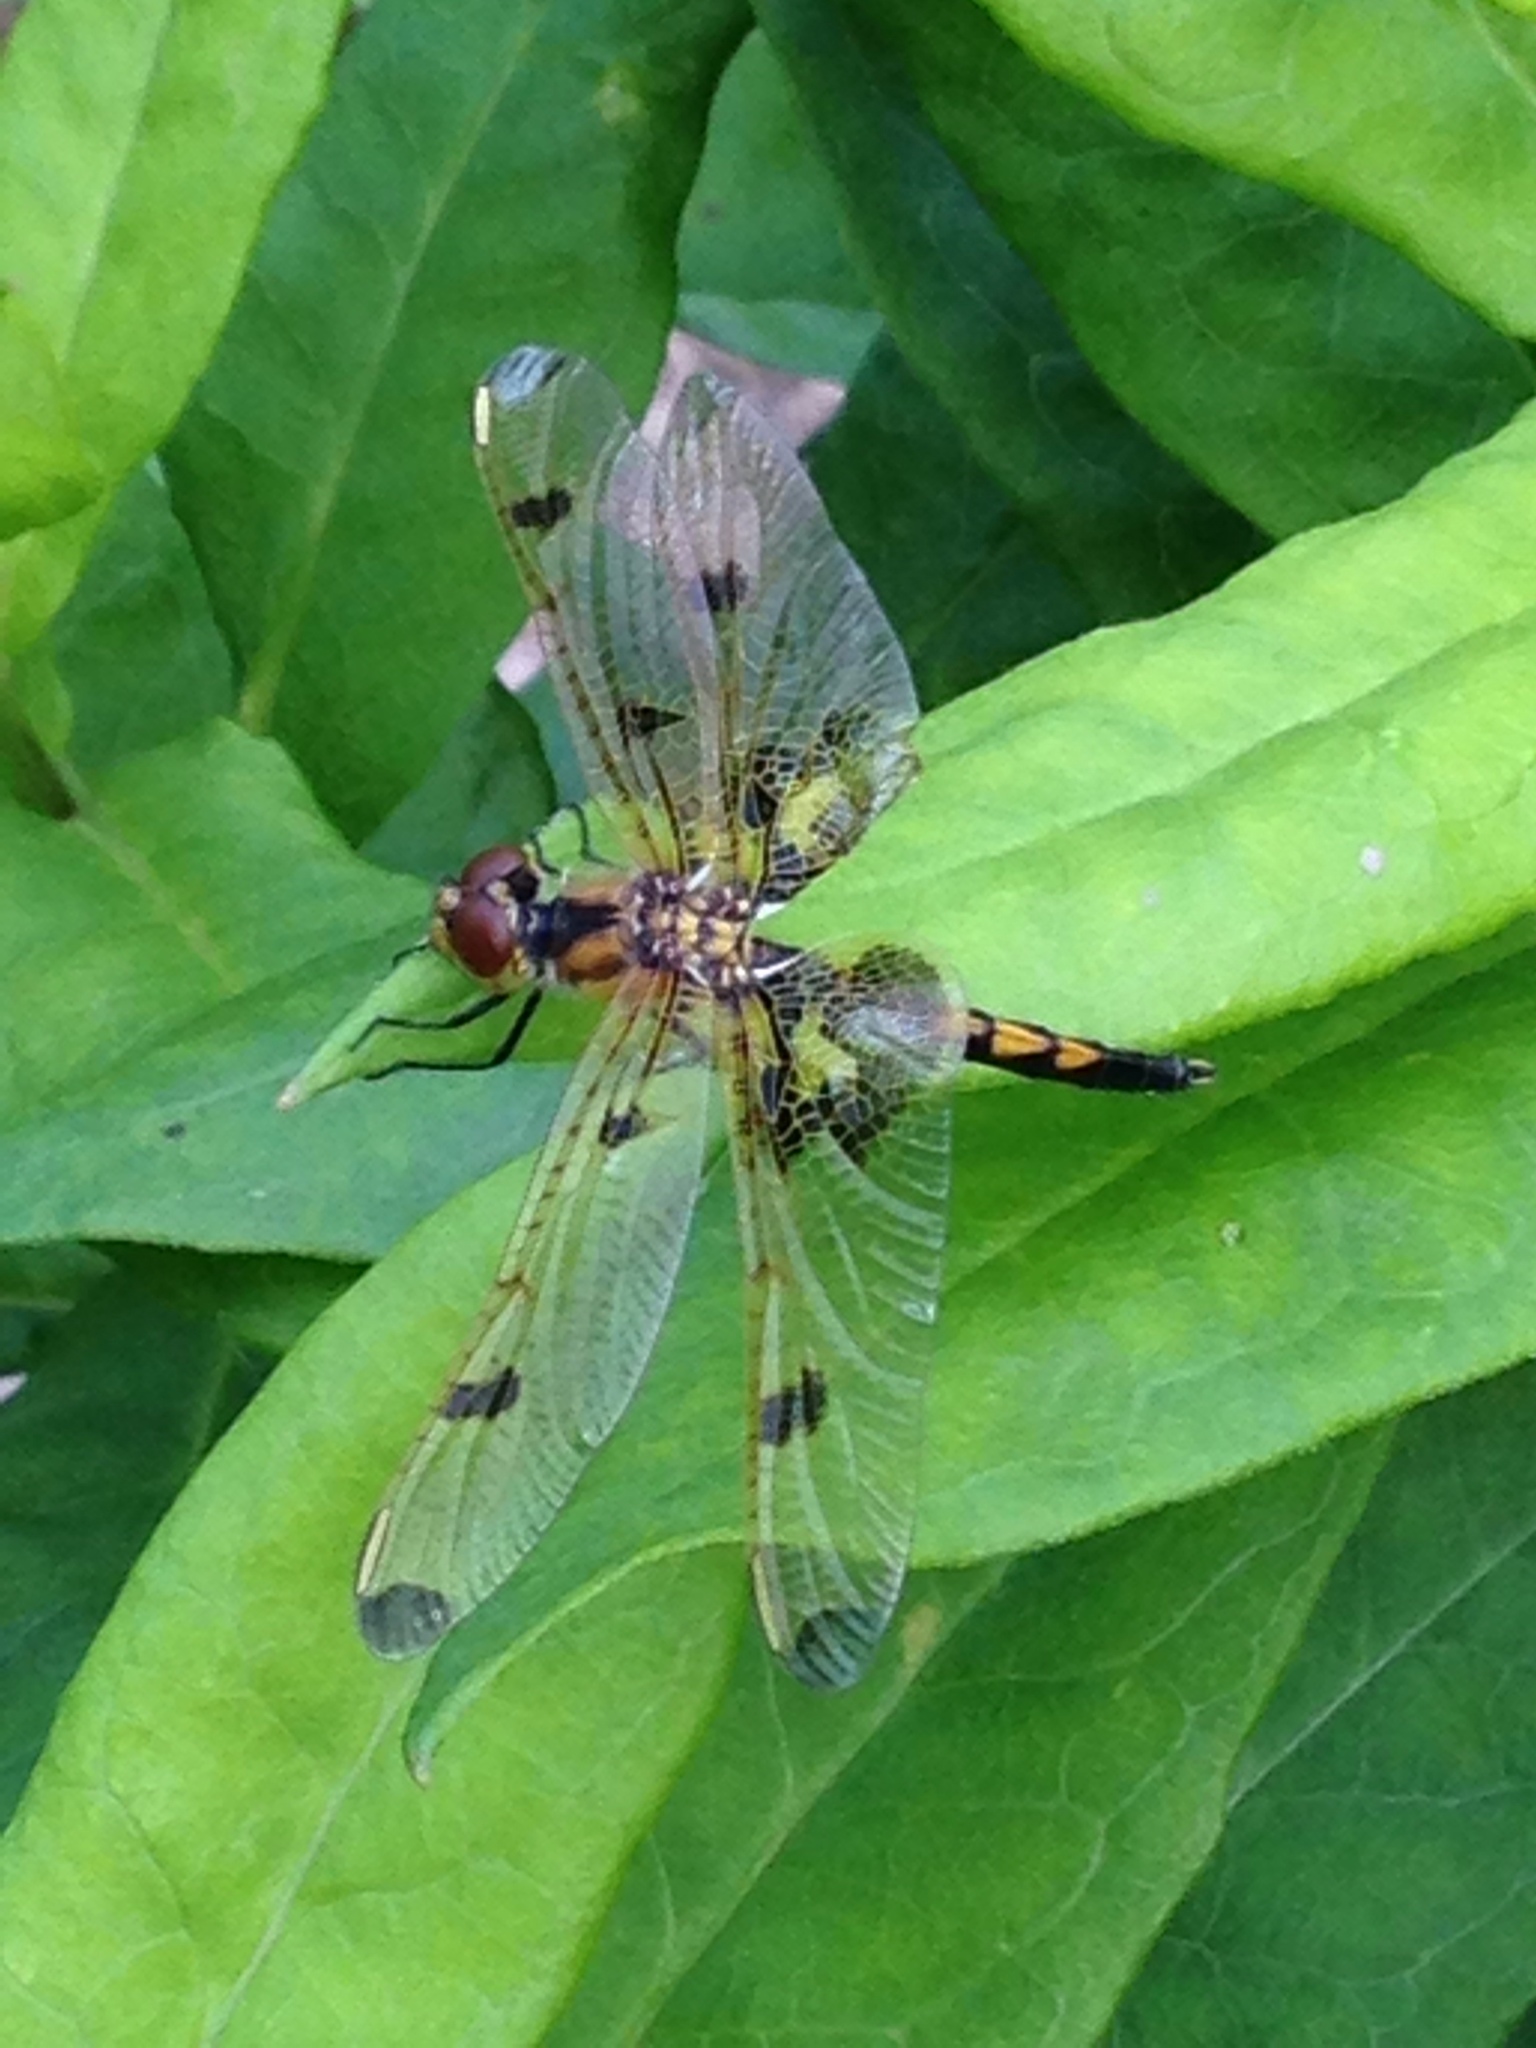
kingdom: Animalia
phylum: Arthropoda
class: Insecta
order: Odonata
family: Libellulidae
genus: Celithemis
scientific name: Celithemis elisa
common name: Calico pennant
